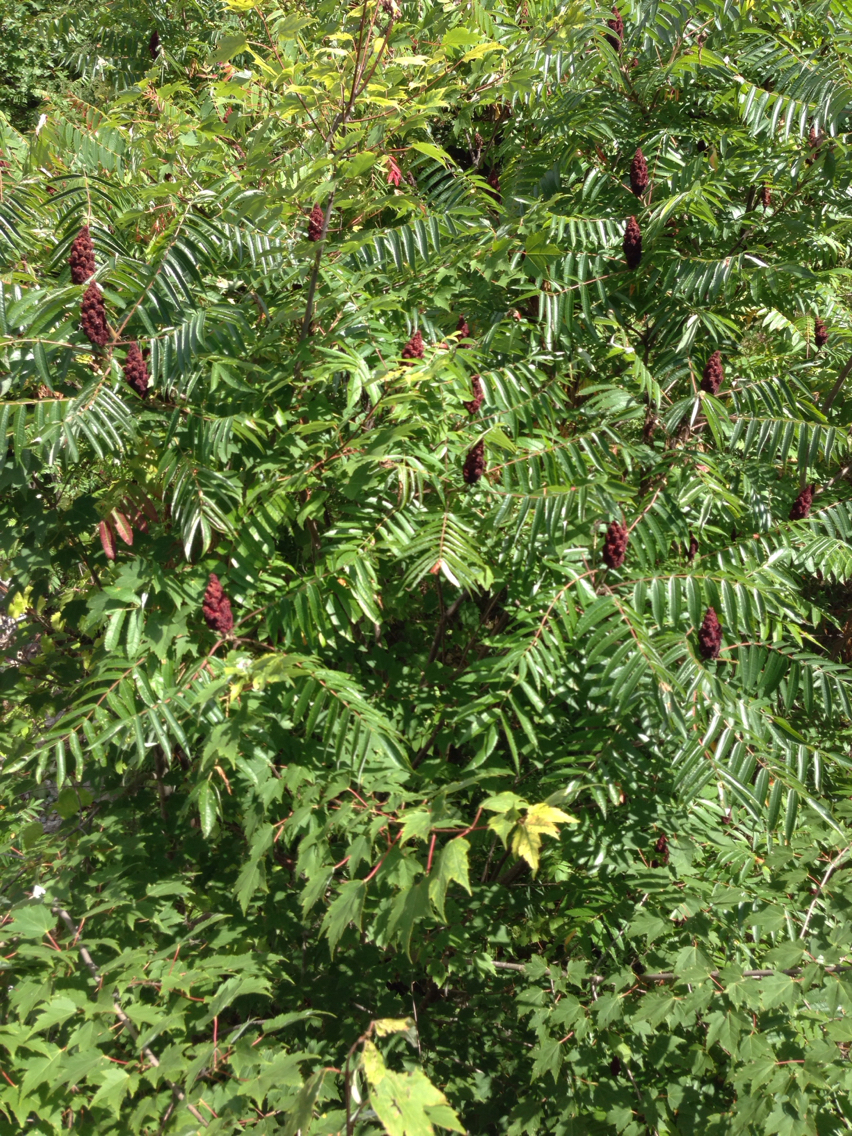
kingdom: Plantae
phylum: Tracheophyta
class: Magnoliopsida
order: Sapindales
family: Anacardiaceae
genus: Rhus
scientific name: Rhus typhina
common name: Staghorn sumac
